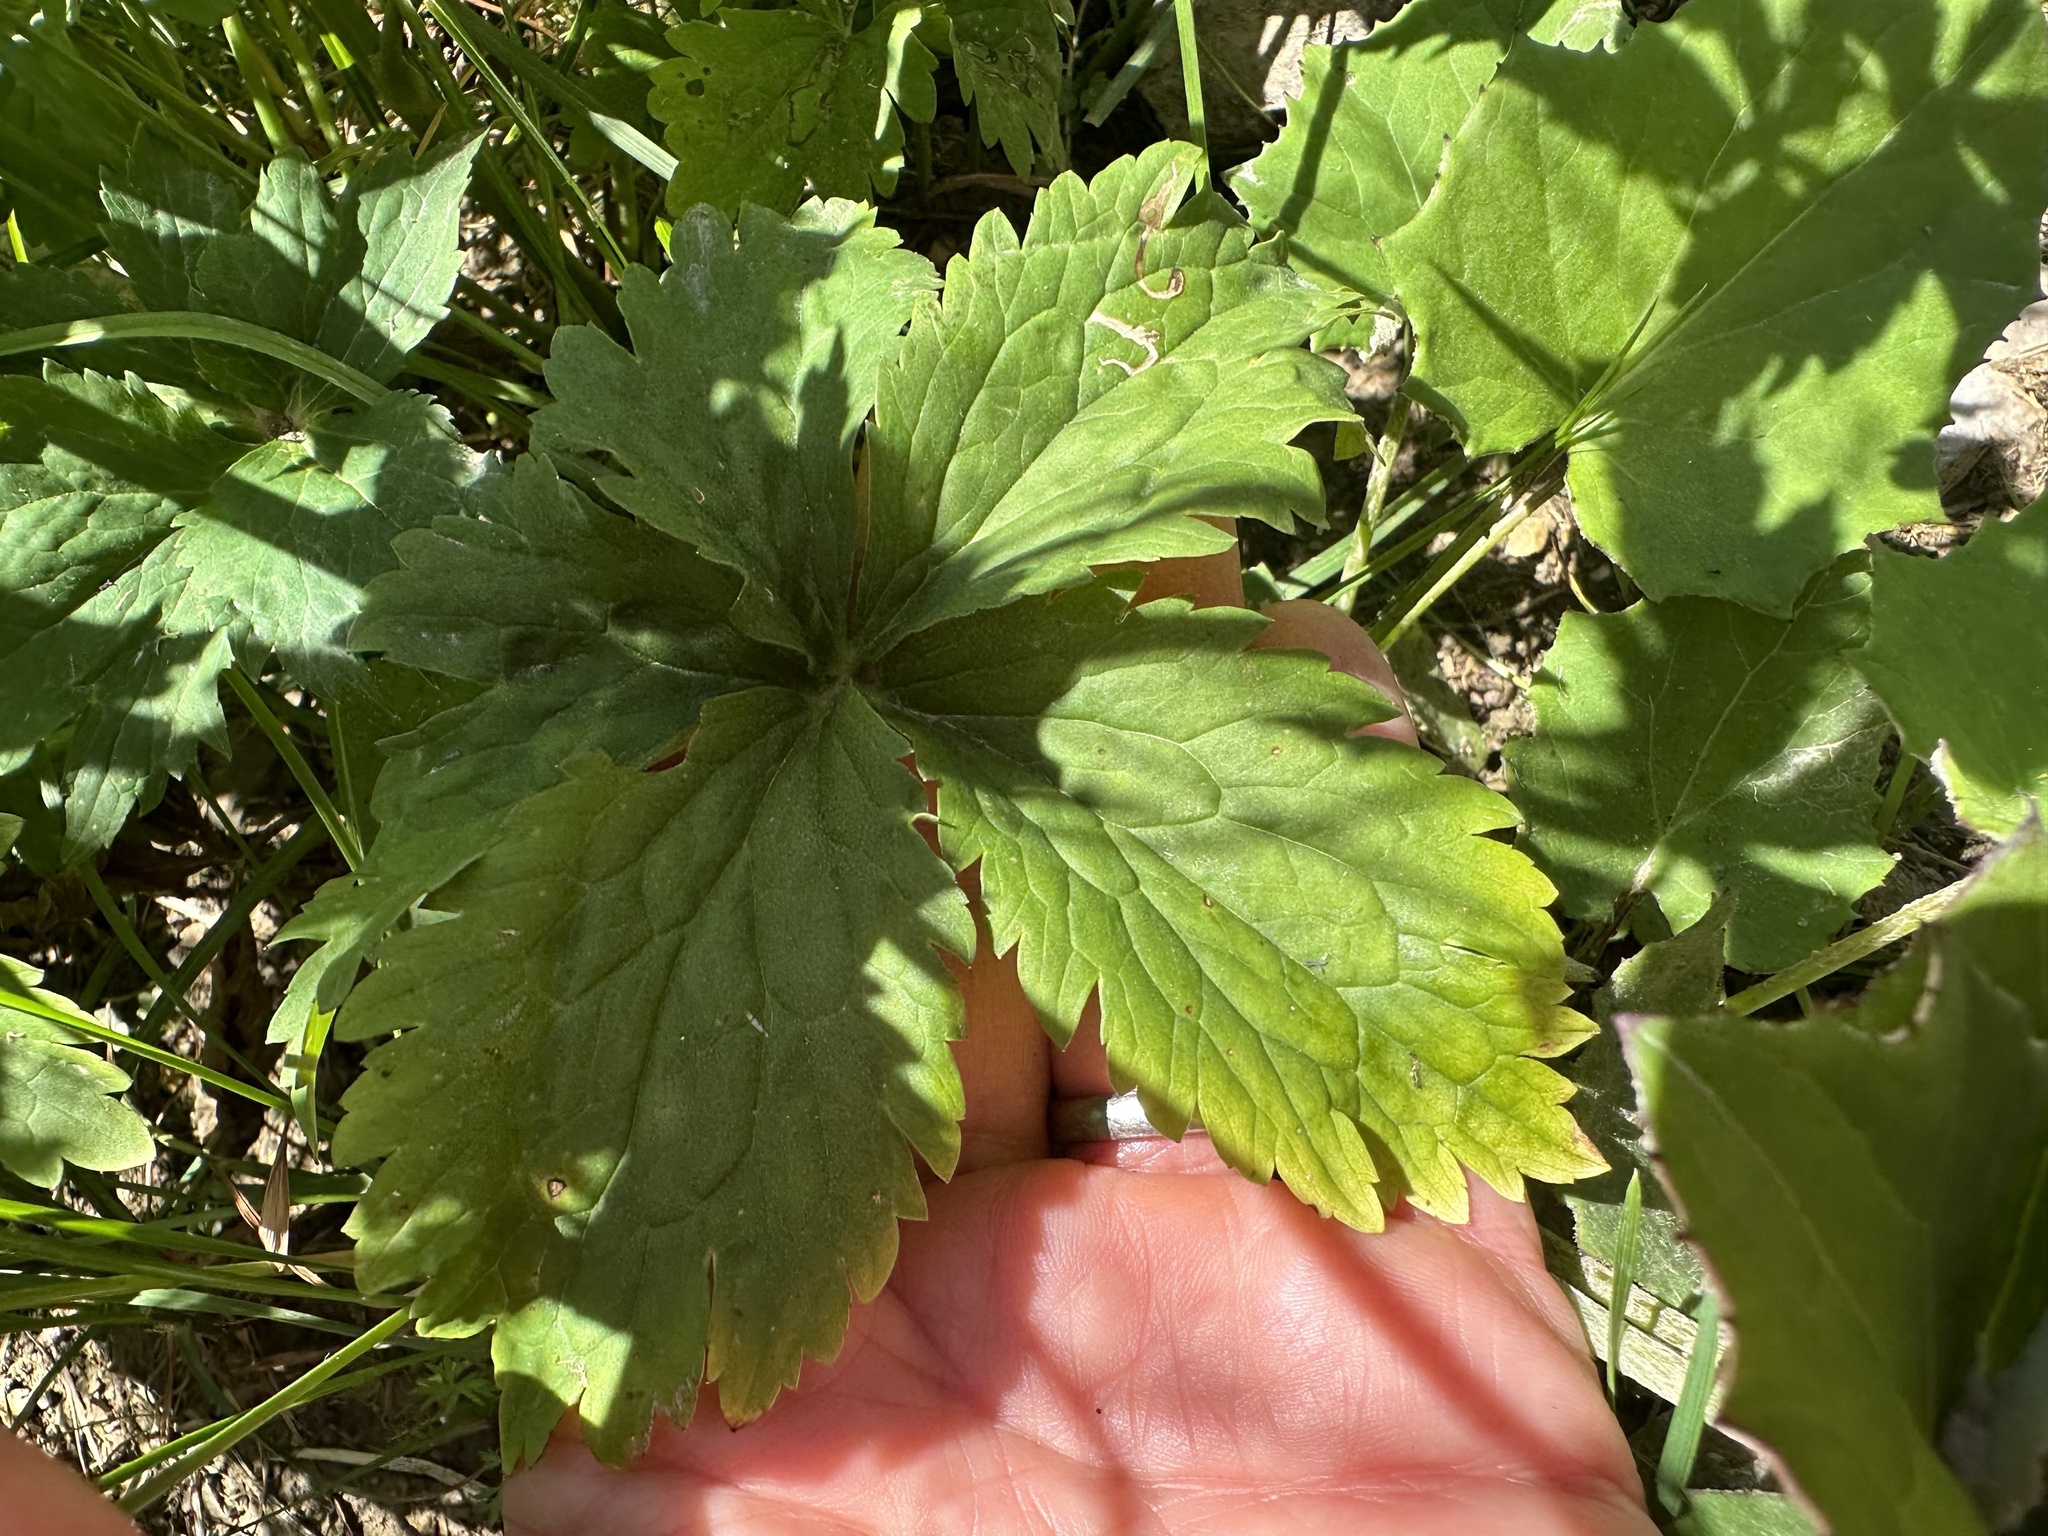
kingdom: Plantae
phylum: Tracheophyta
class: Magnoliopsida
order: Ranunculales
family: Ranunculaceae
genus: Ranunculus
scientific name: Ranunculus aconitifolius
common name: Aconite-leaved buttercup
